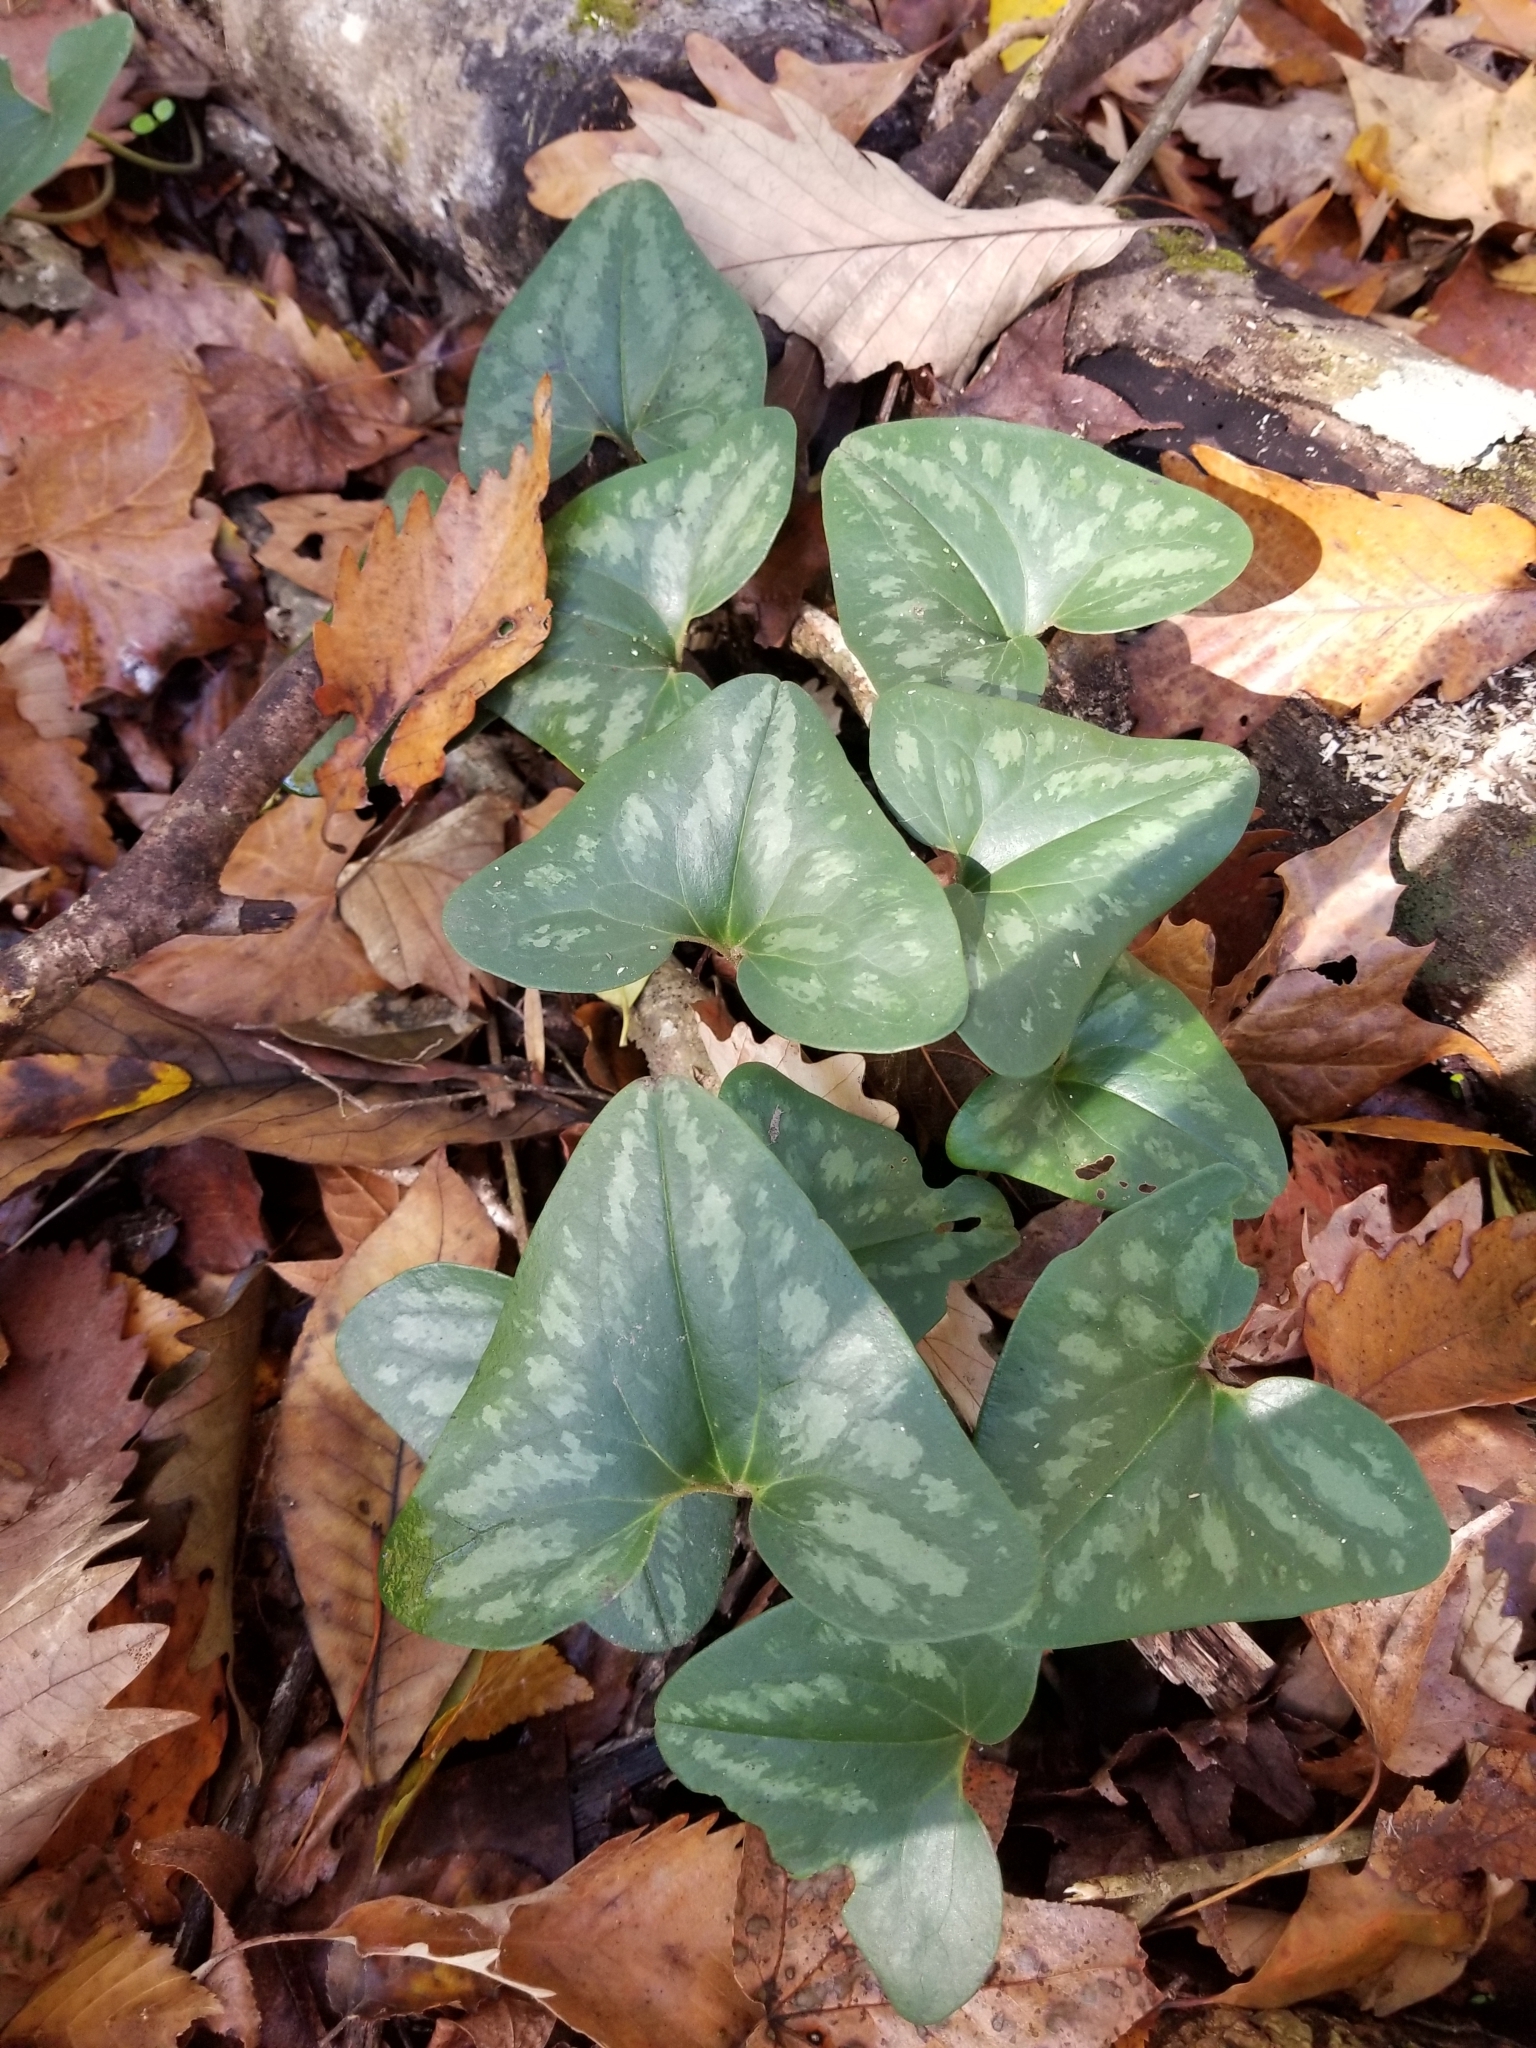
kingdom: Plantae
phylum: Tracheophyta
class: Magnoliopsida
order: Piperales
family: Aristolochiaceae
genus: Hexastylis
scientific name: Hexastylis arifolia
